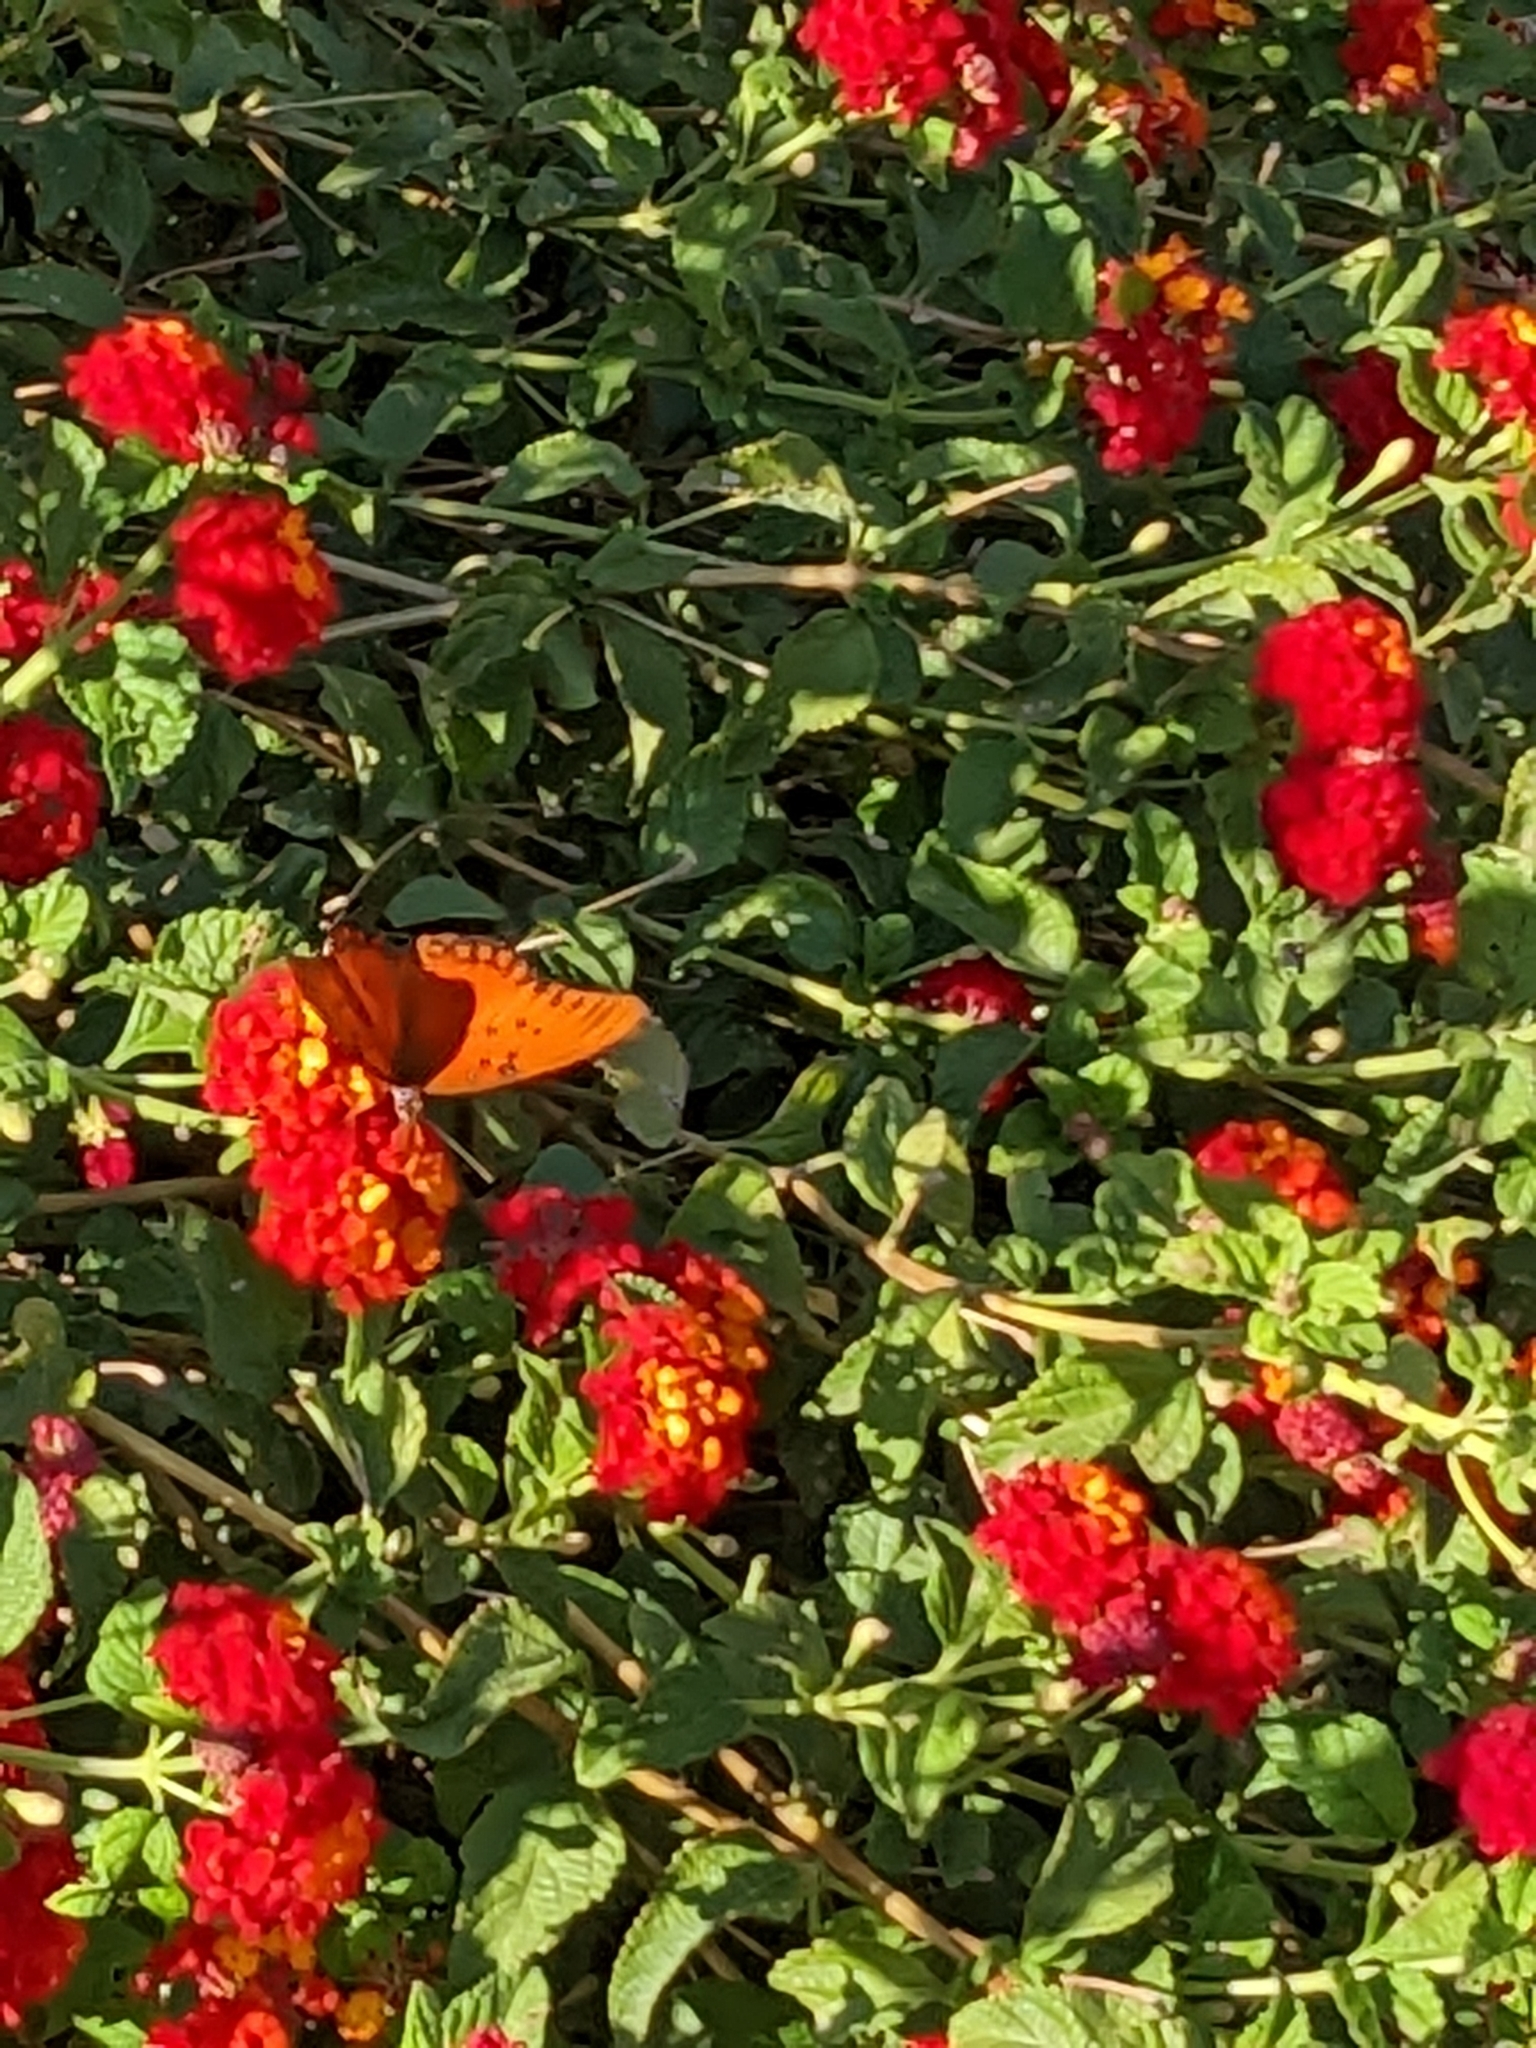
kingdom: Animalia
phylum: Arthropoda
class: Insecta
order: Lepidoptera
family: Nymphalidae
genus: Dione
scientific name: Dione vanillae
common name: Gulf fritillary
